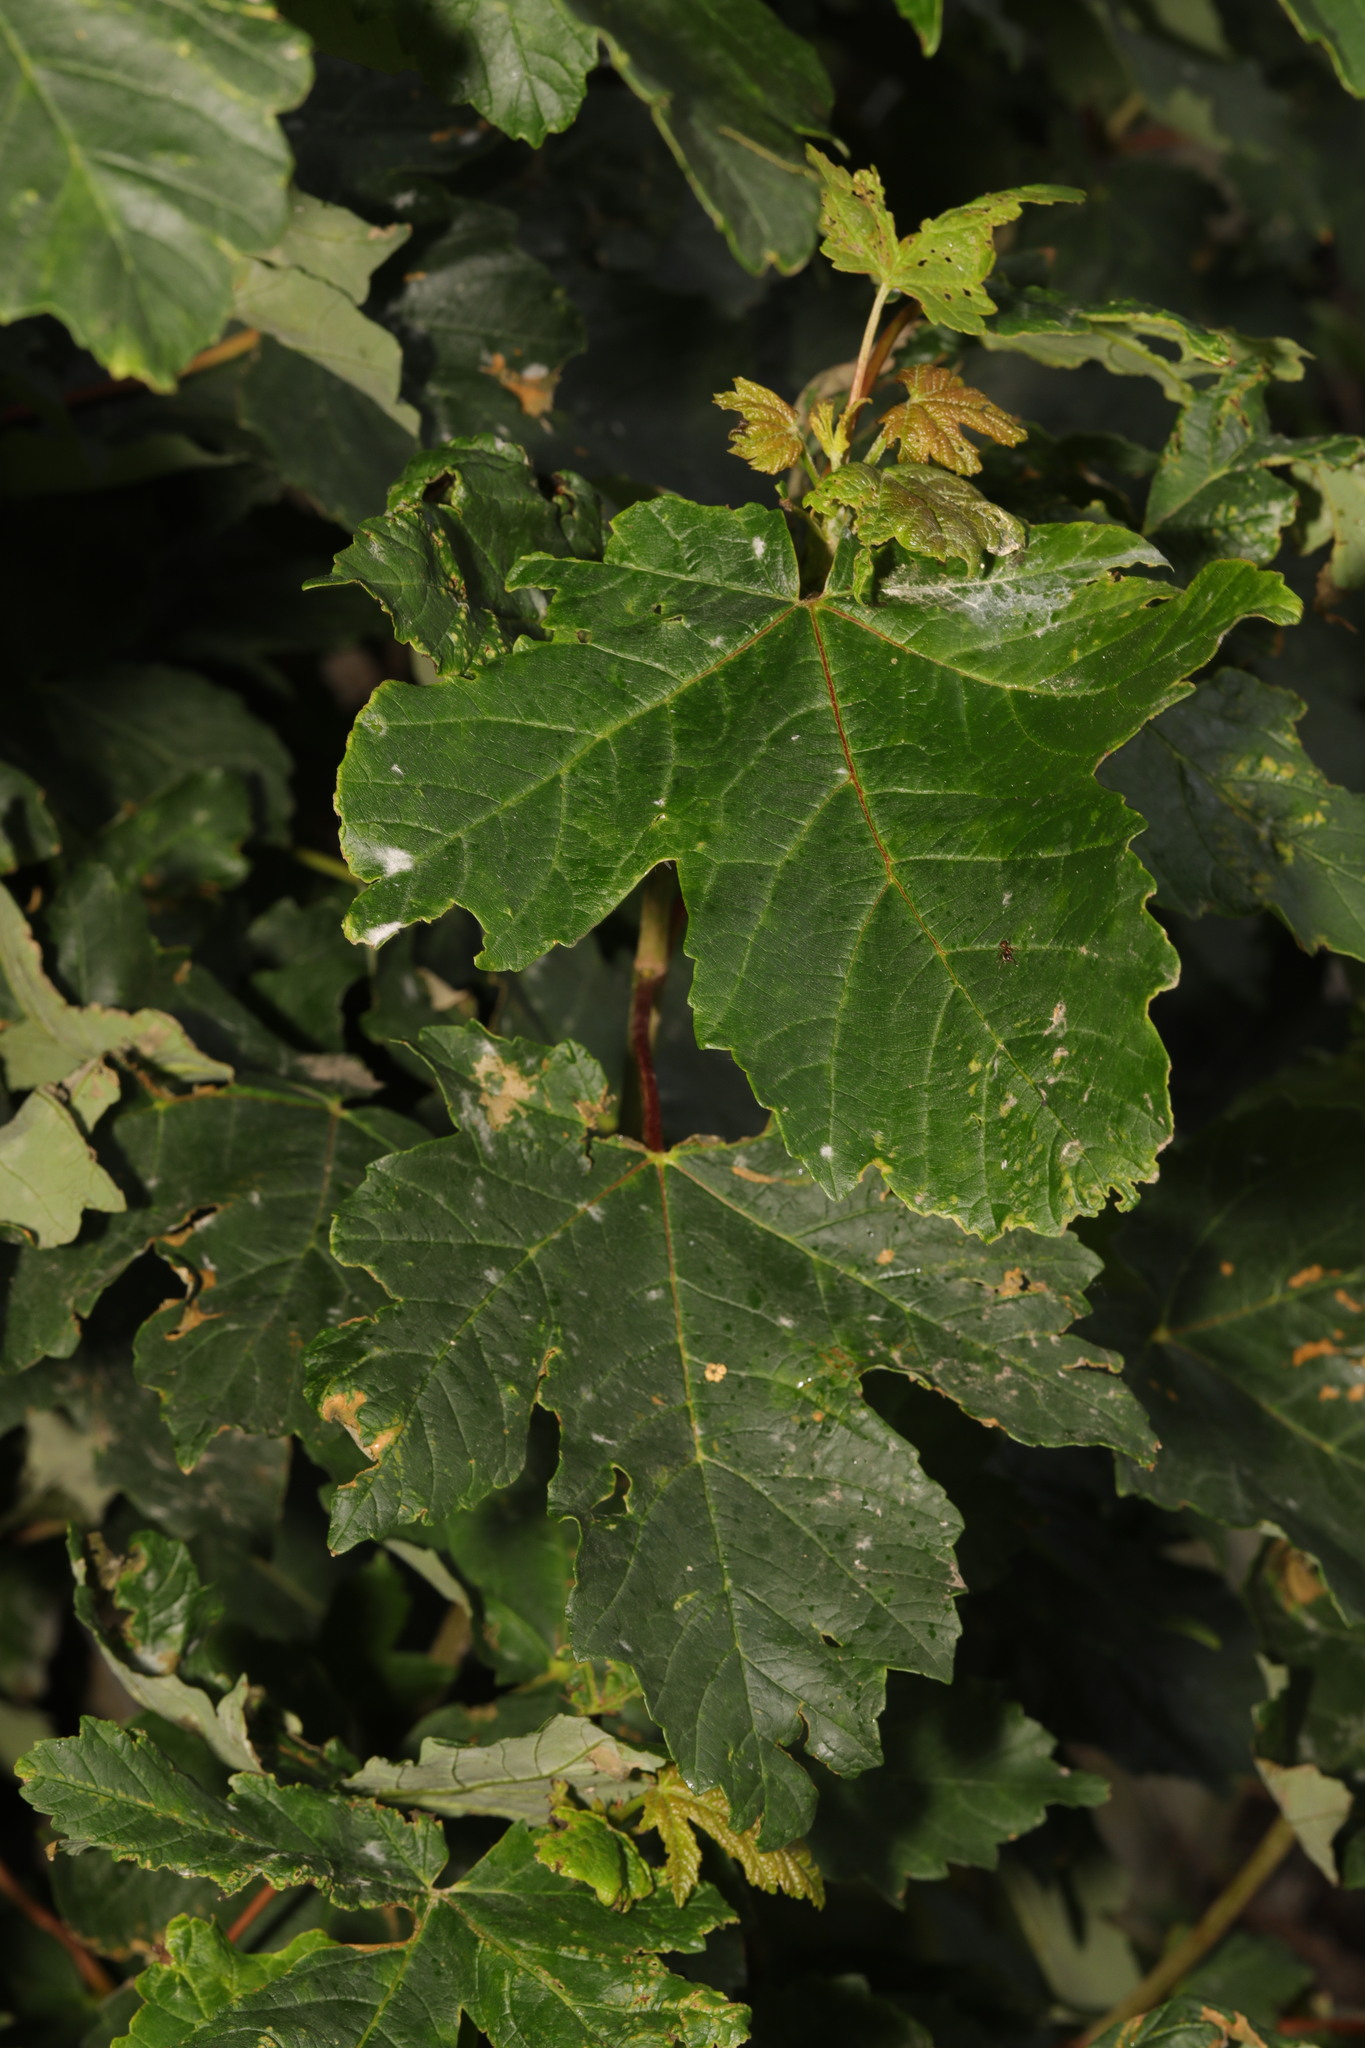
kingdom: Plantae
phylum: Tracheophyta
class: Magnoliopsida
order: Sapindales
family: Sapindaceae
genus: Acer
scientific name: Acer pseudoplatanus
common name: Sycamore
